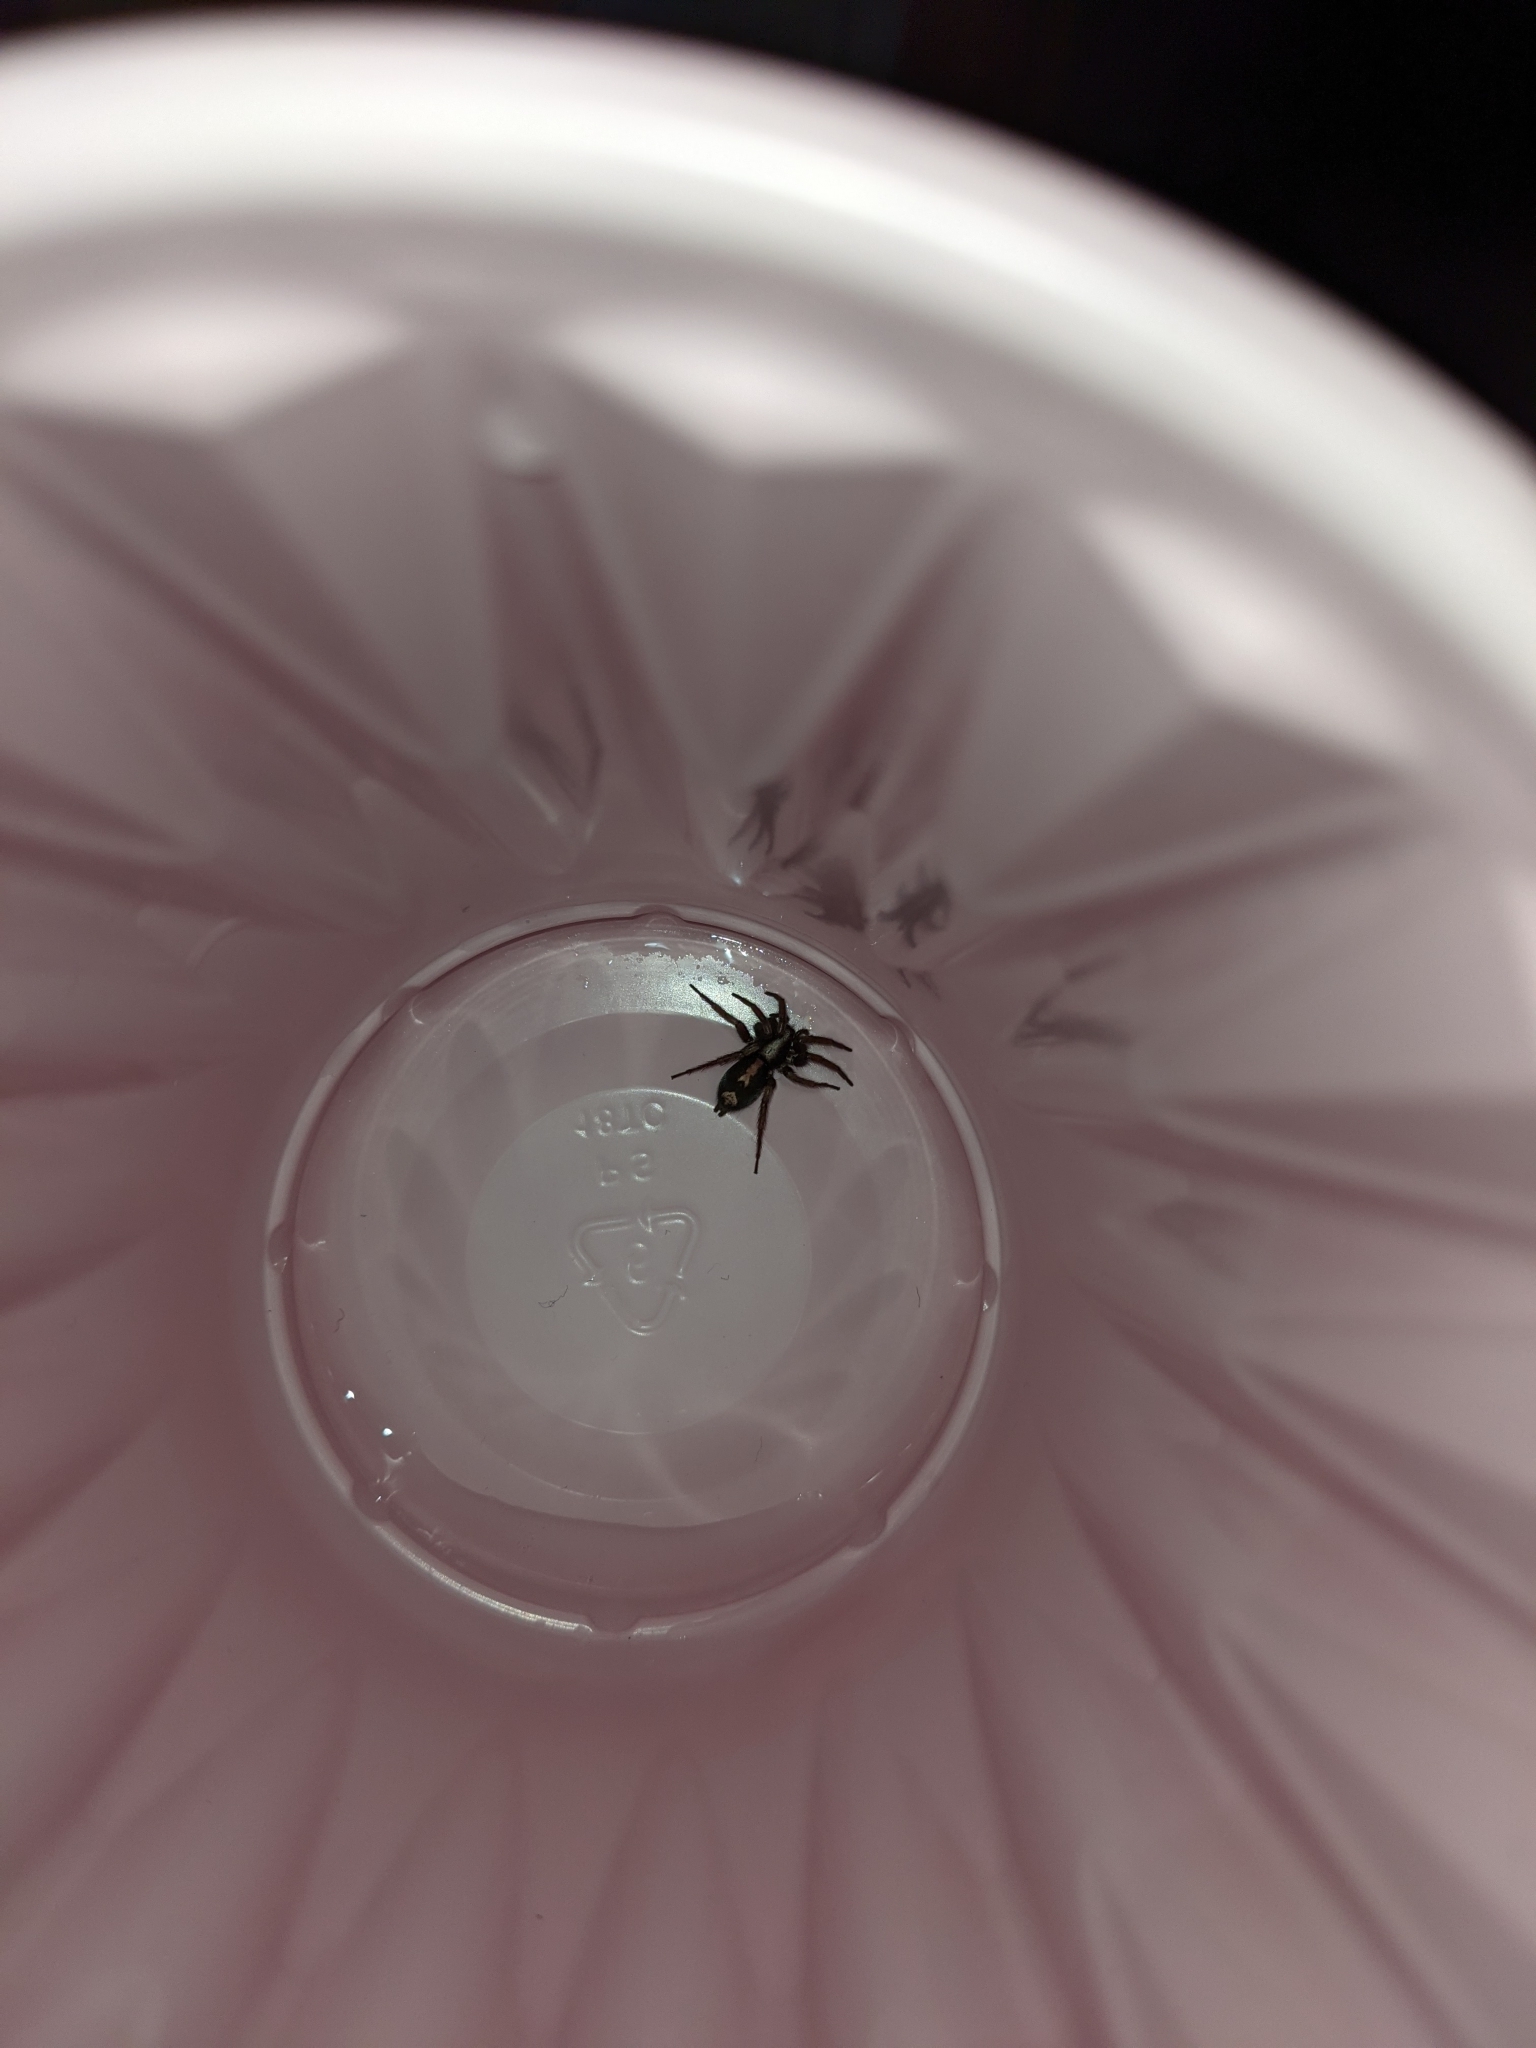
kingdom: Animalia
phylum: Arthropoda
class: Arachnida
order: Araneae
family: Gnaphosidae
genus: Herpyllus
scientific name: Herpyllus ecclesiasticus
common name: Eastern parson spider
